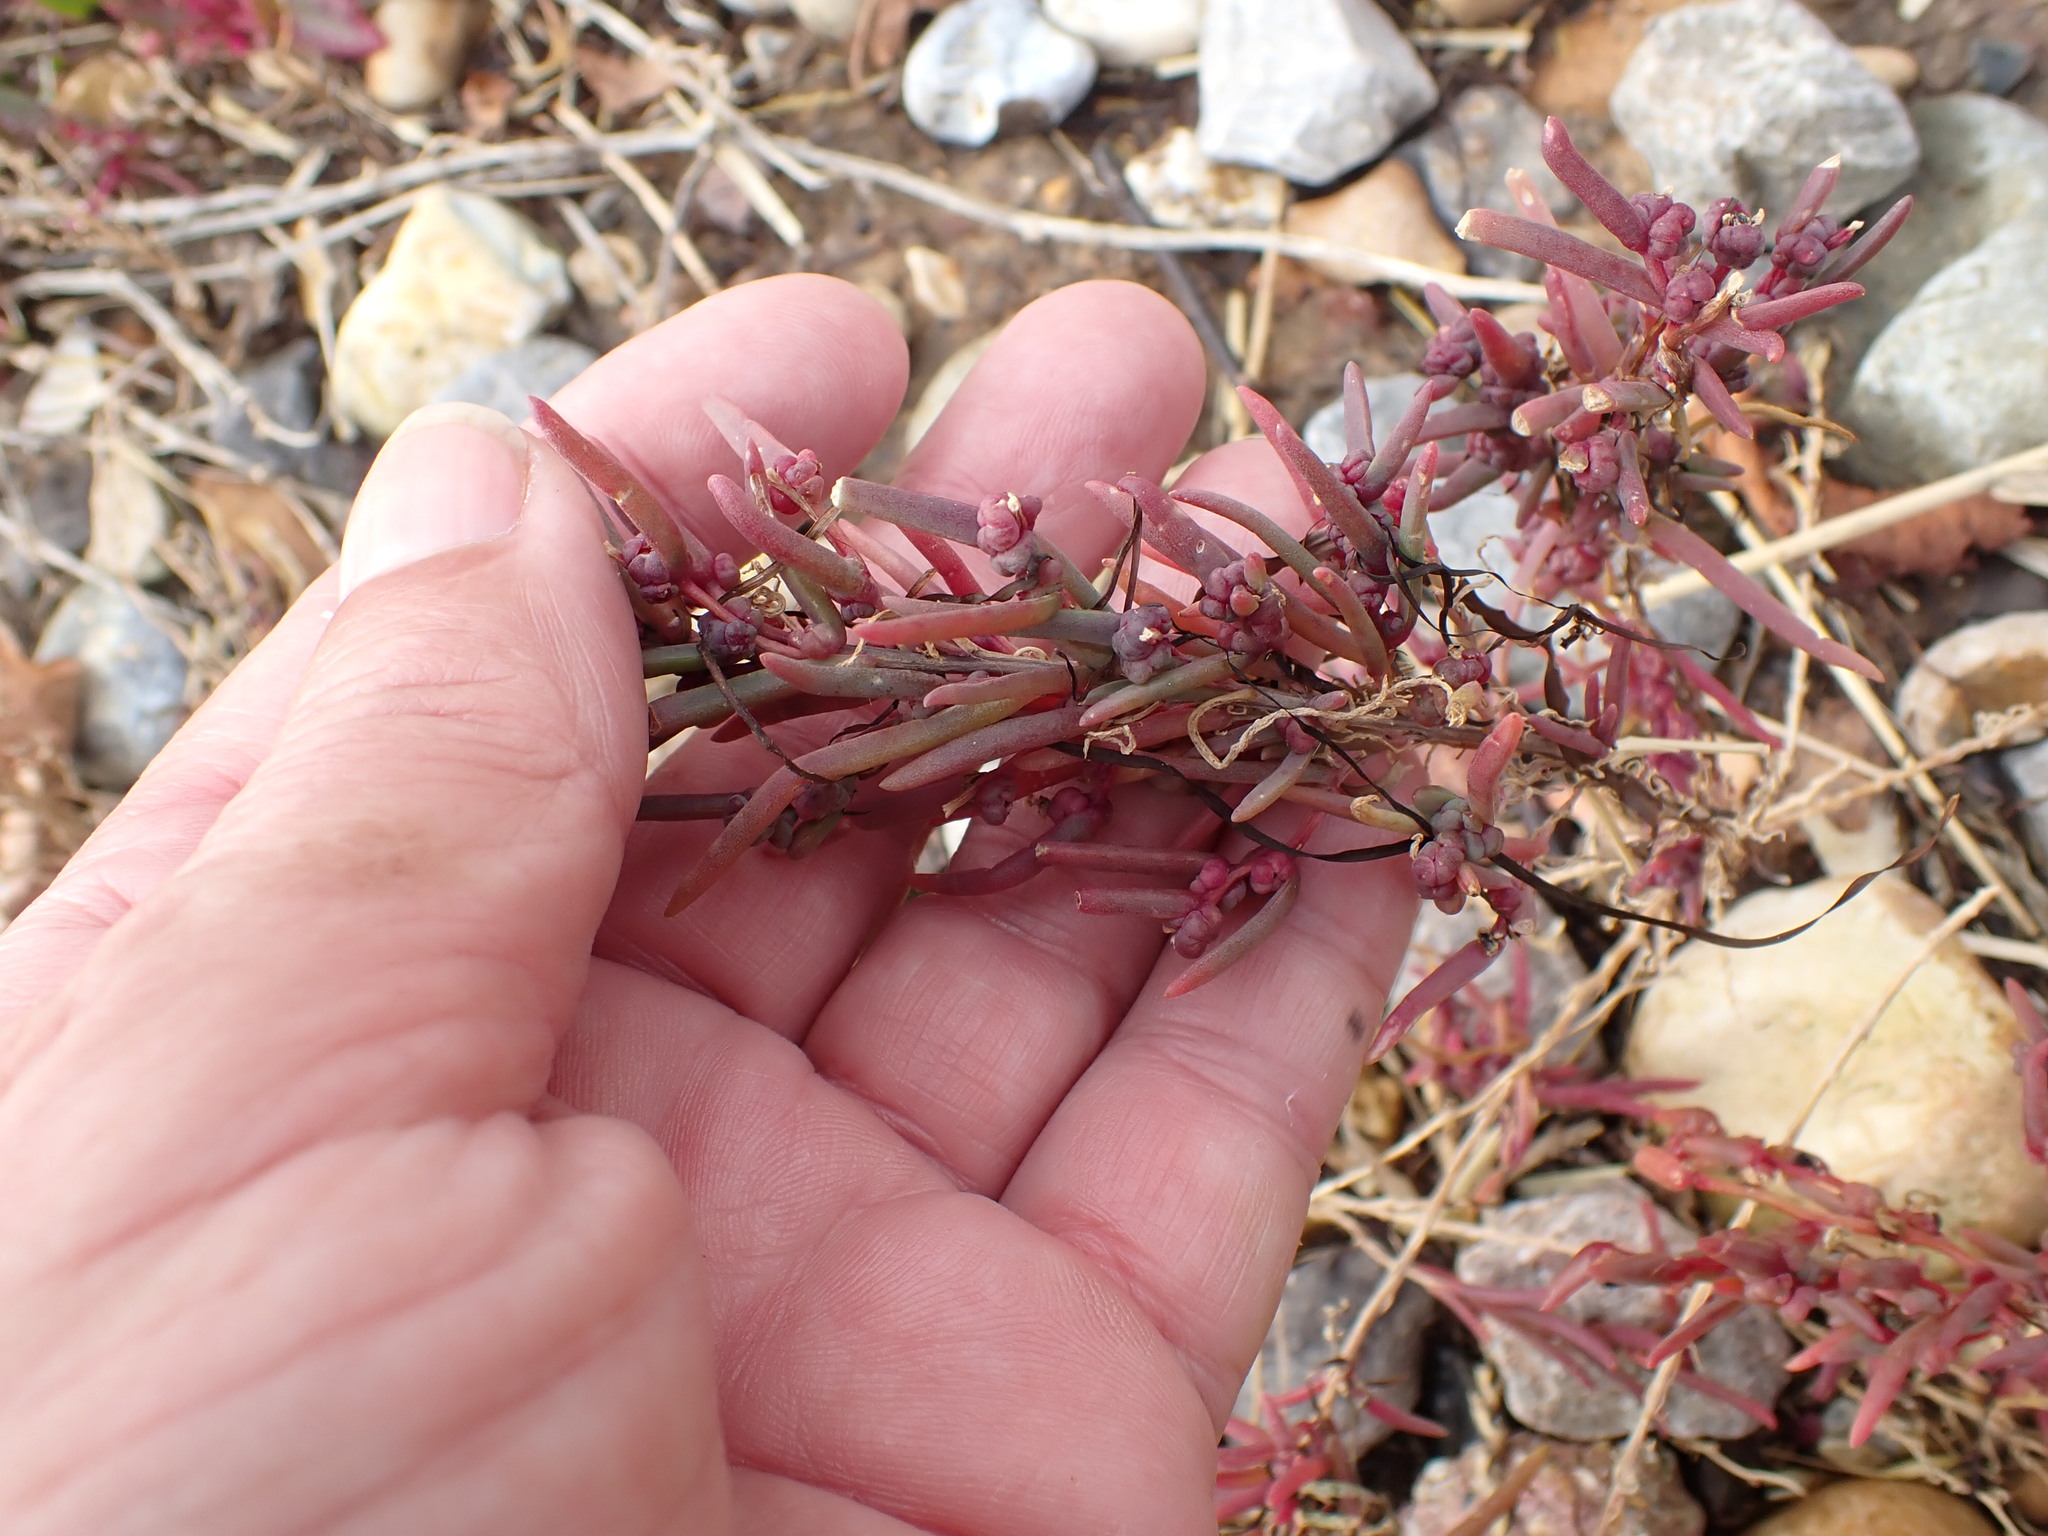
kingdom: Plantae
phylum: Tracheophyta
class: Magnoliopsida
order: Caryophyllales
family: Amaranthaceae
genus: Suaeda
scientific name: Suaeda maritima
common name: Annual sea-blite
